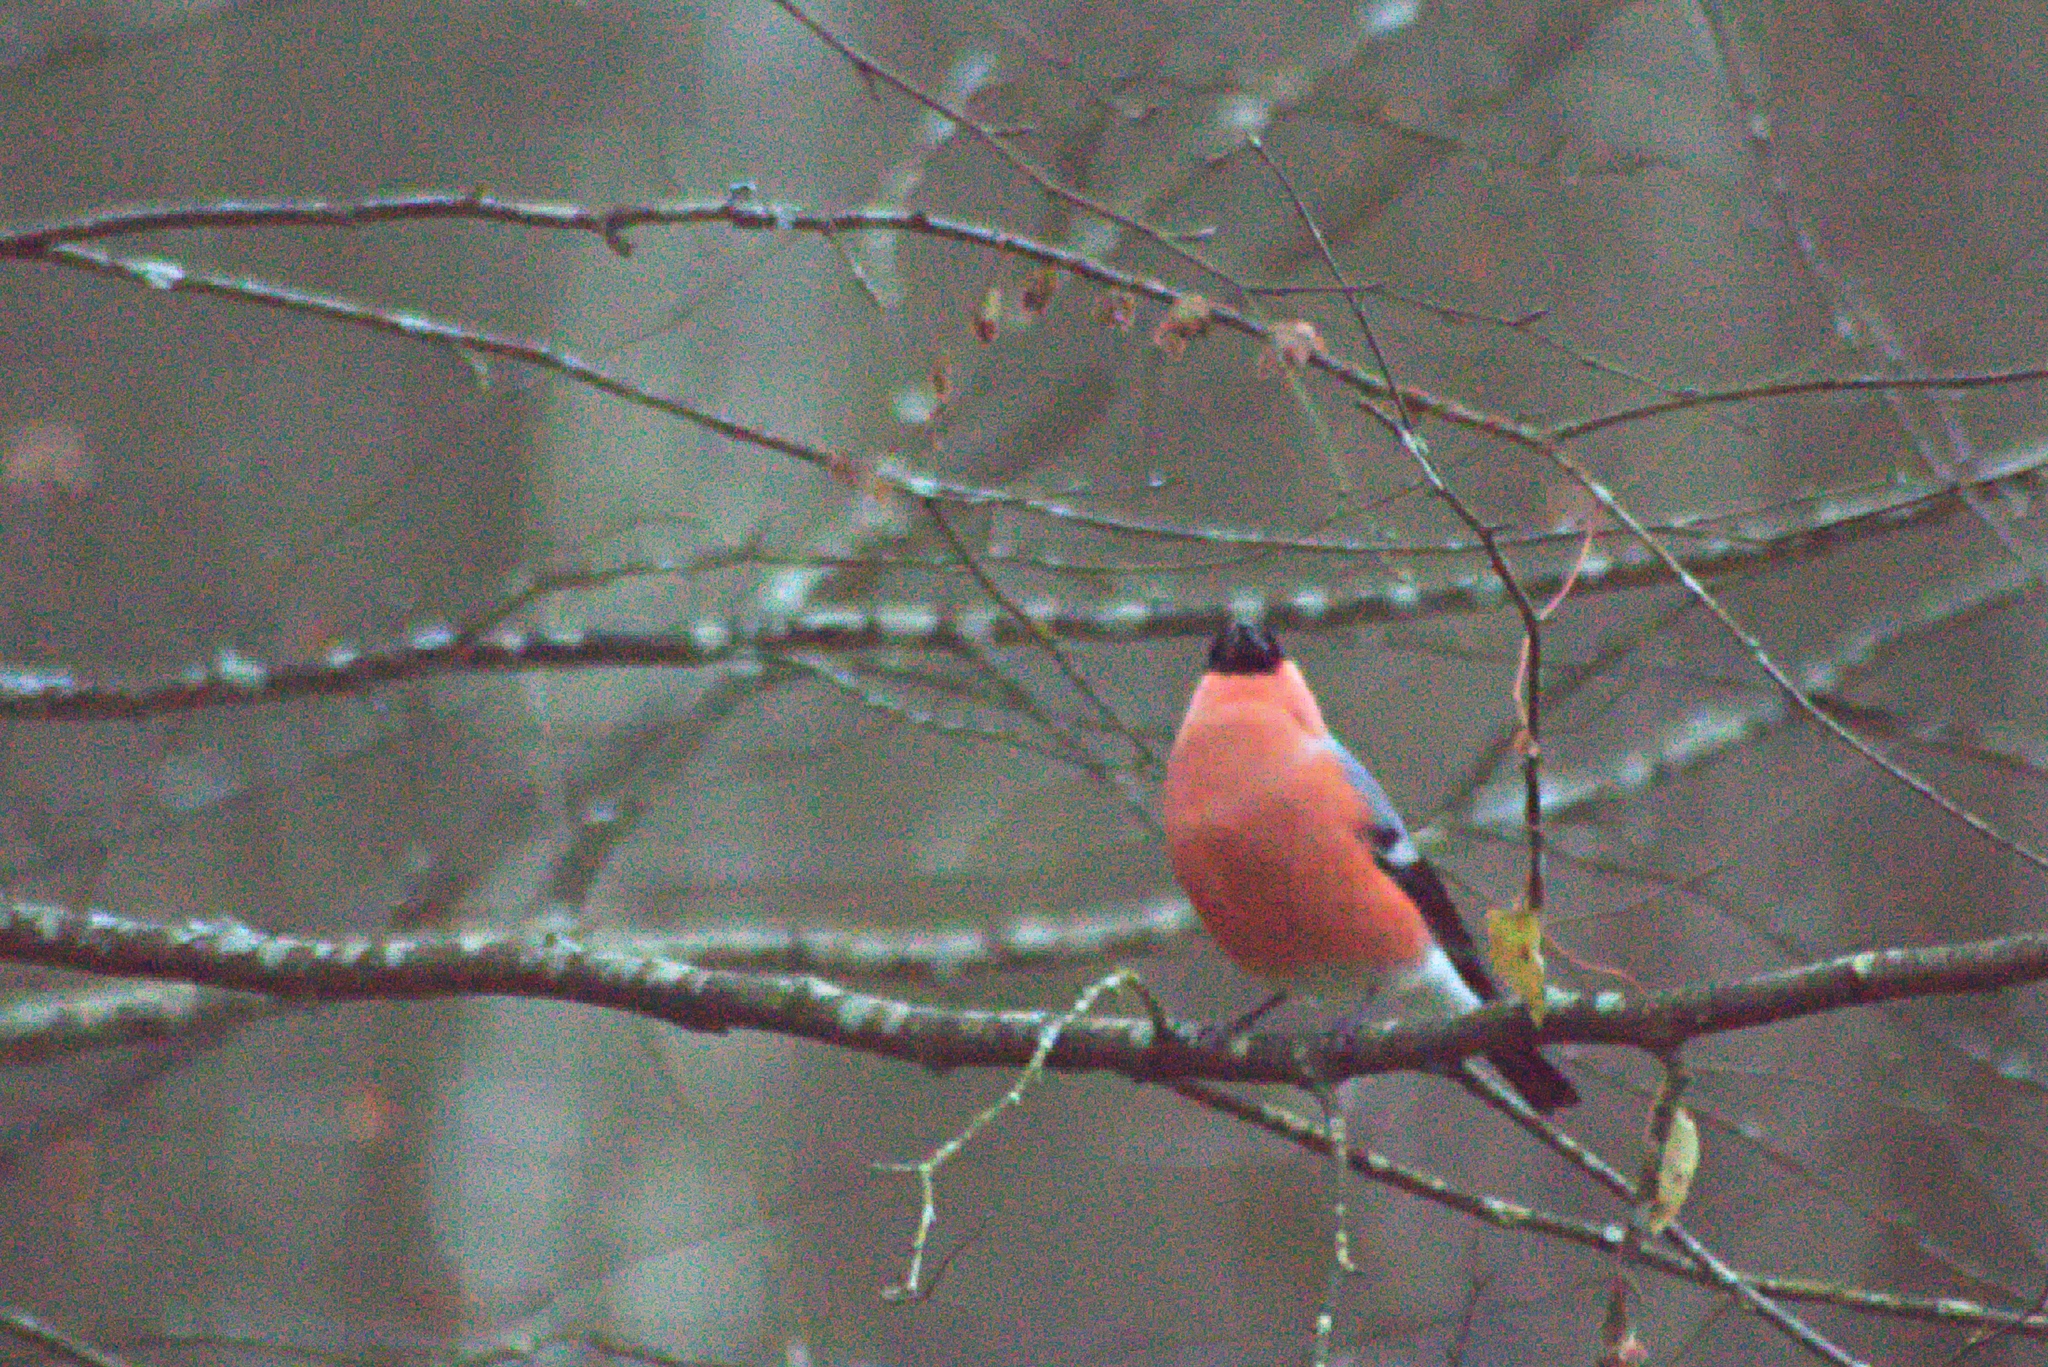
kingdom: Animalia
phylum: Chordata
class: Aves
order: Passeriformes
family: Fringillidae
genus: Pyrrhula
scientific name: Pyrrhula pyrrhula
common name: Eurasian bullfinch
